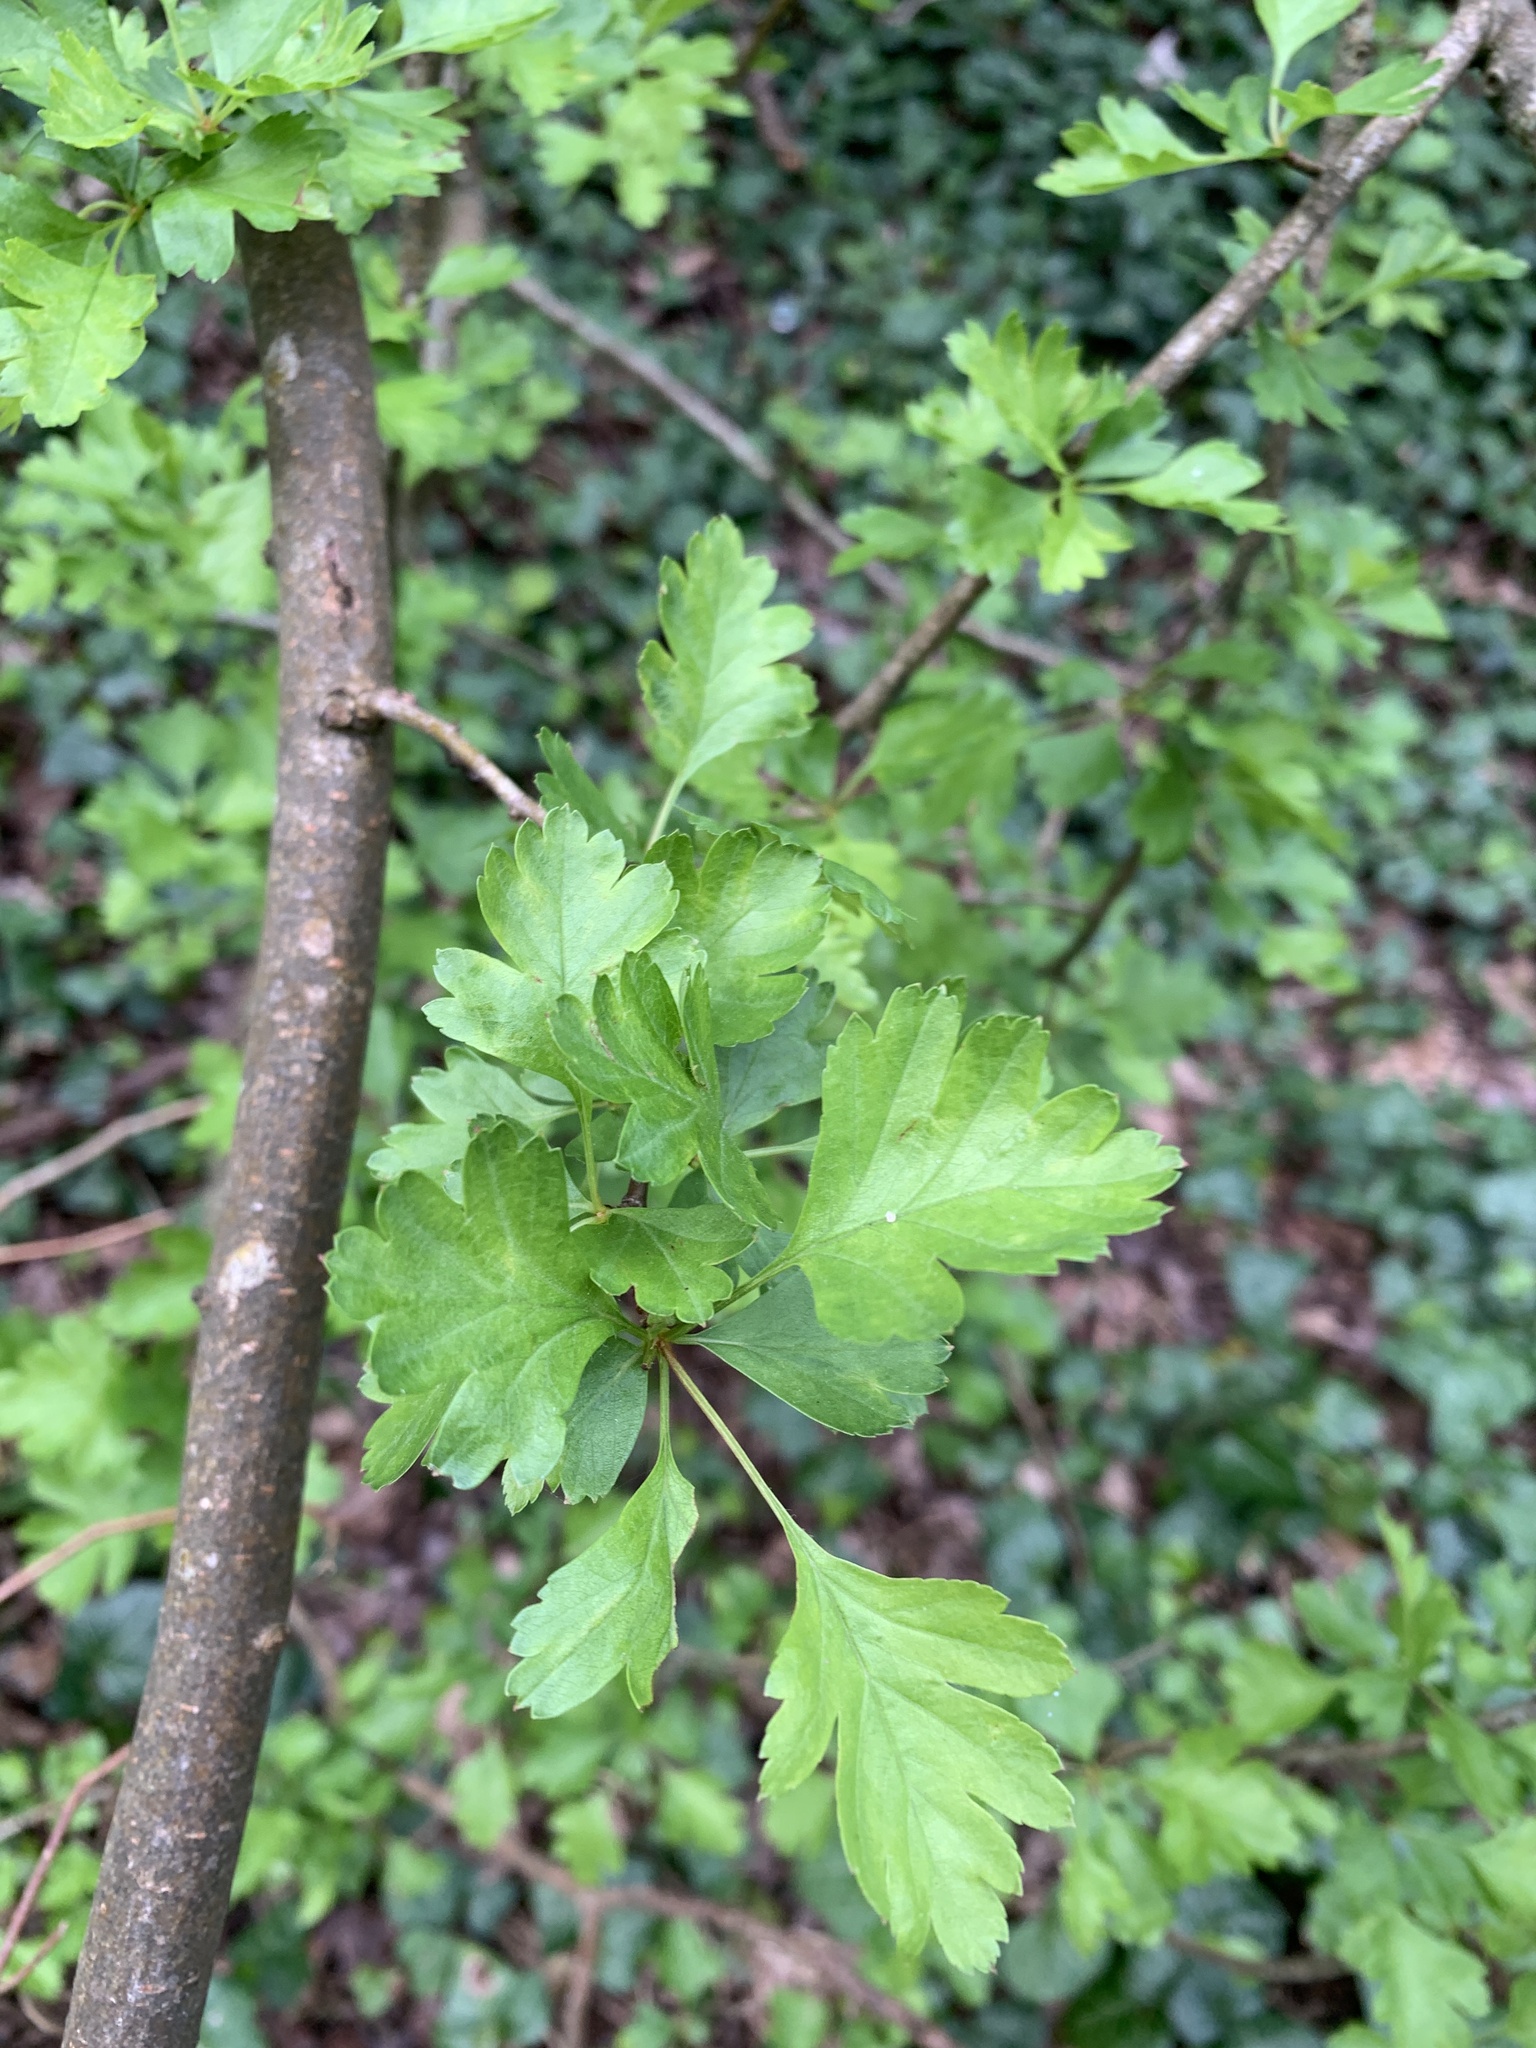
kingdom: Plantae
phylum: Tracheophyta
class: Magnoliopsida
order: Rosales
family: Rosaceae
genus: Crataegus
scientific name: Crataegus monogyna
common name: Hawthorn
